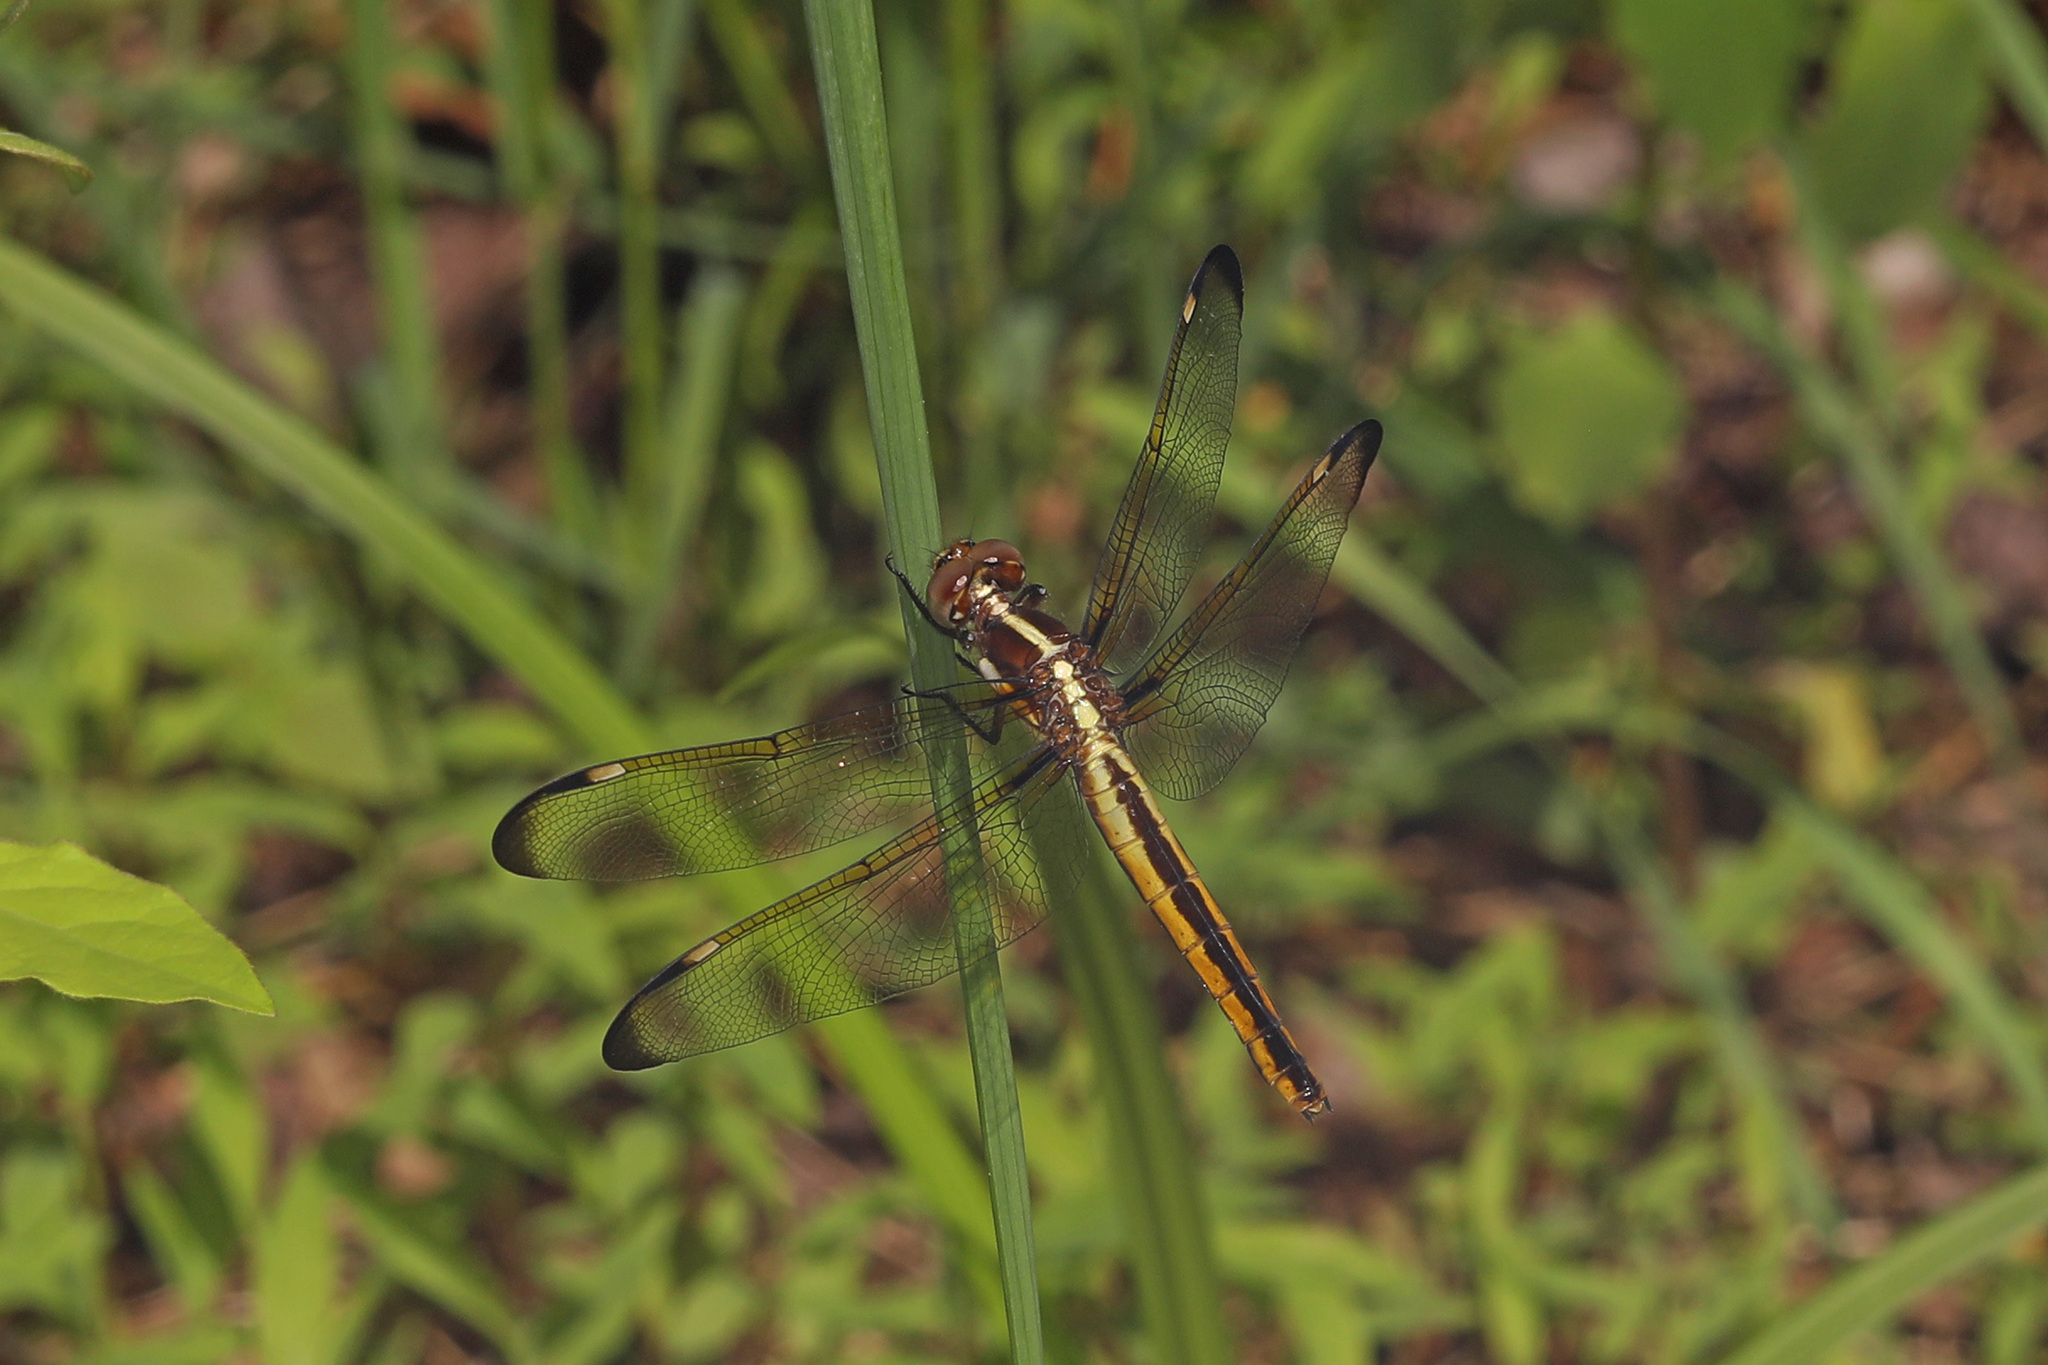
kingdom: Animalia
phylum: Arthropoda
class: Insecta
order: Odonata
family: Libellulidae
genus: Libellula
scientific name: Libellula cyanea
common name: Spangled skimmer
